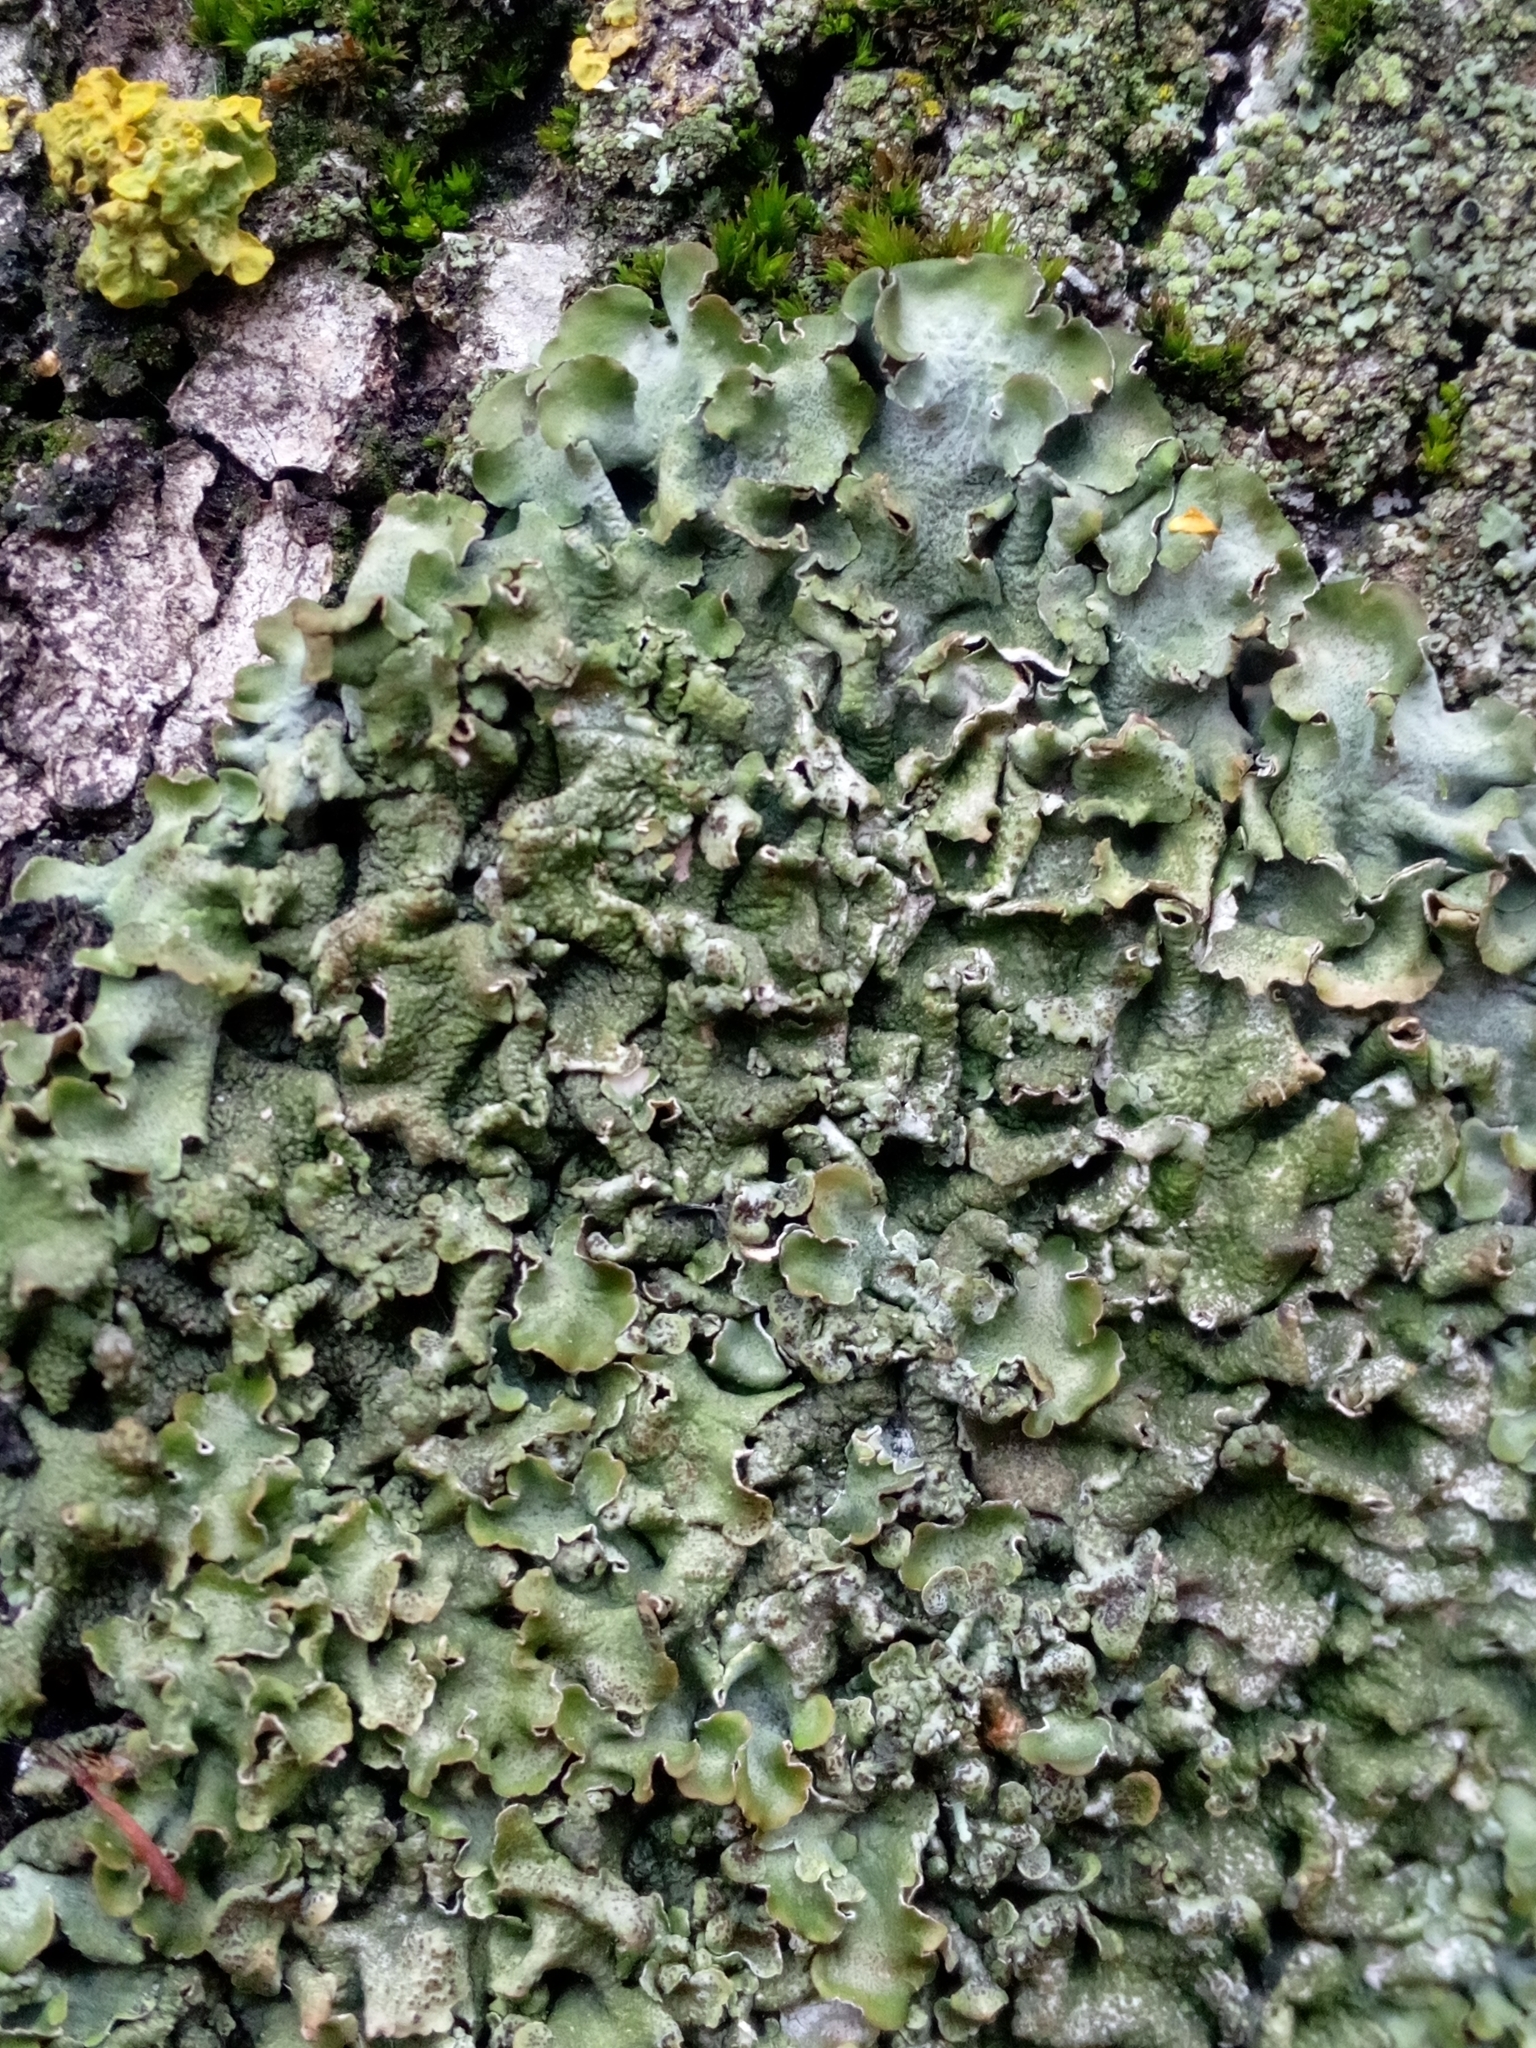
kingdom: Fungi
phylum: Ascomycota
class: Lecanoromycetes
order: Lecanorales
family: Parmeliaceae
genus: Pleurosticta
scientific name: Pleurosticta acetabulum
